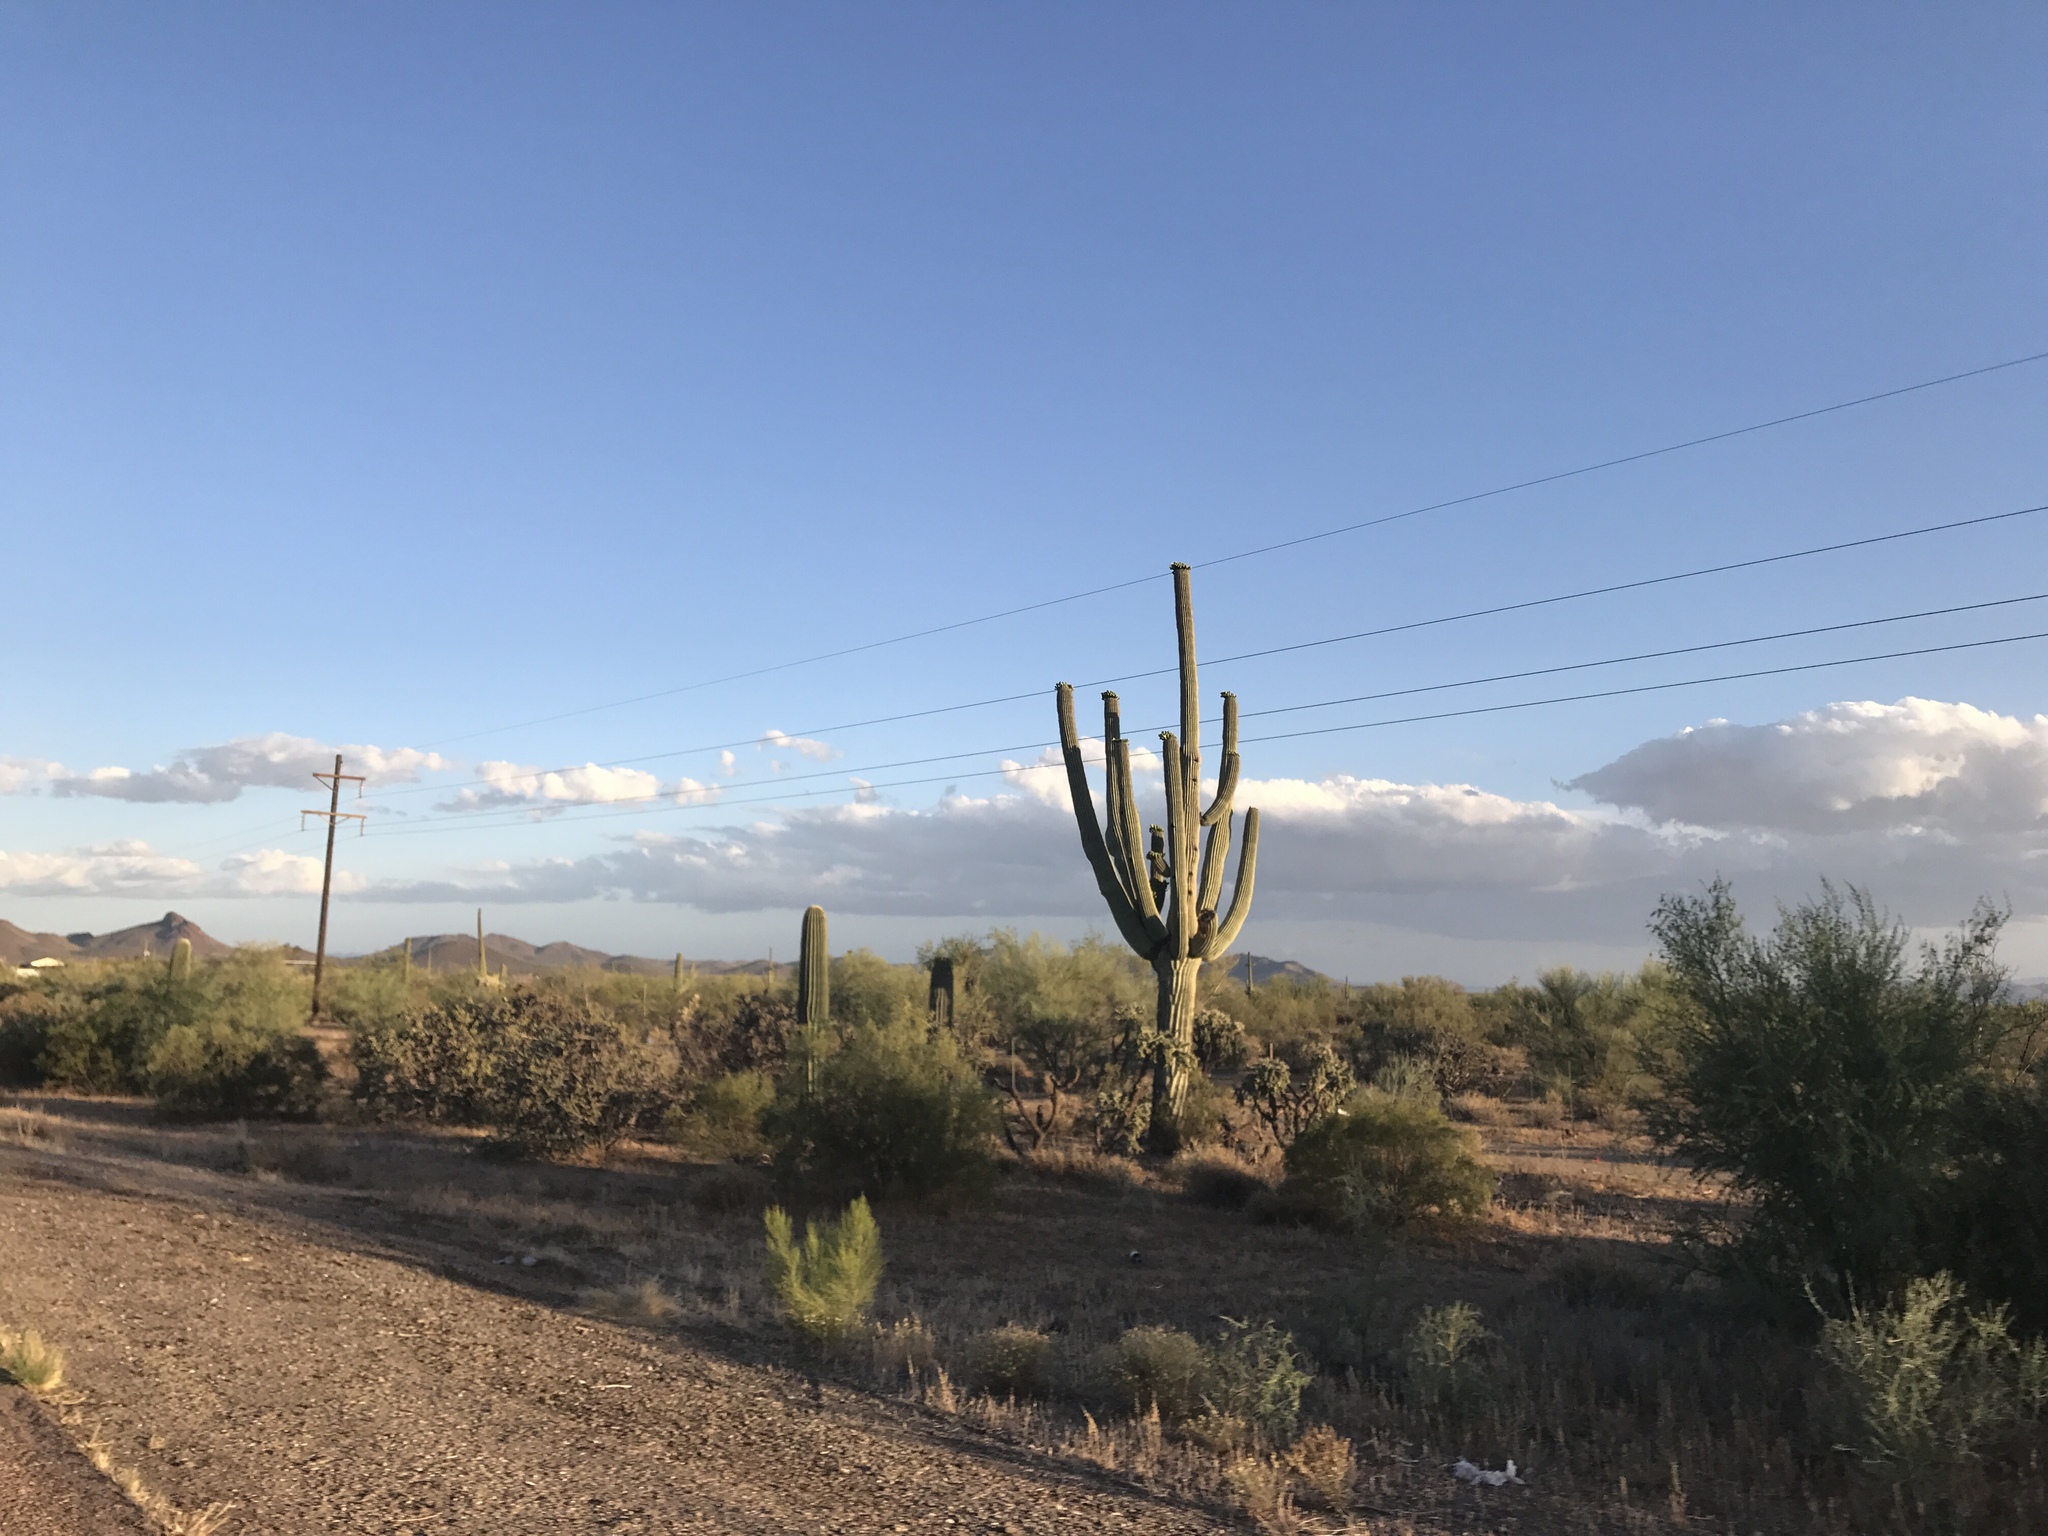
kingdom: Plantae
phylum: Tracheophyta
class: Magnoliopsida
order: Caryophyllales
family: Cactaceae
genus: Carnegiea
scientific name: Carnegiea gigantea
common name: Saguaro
